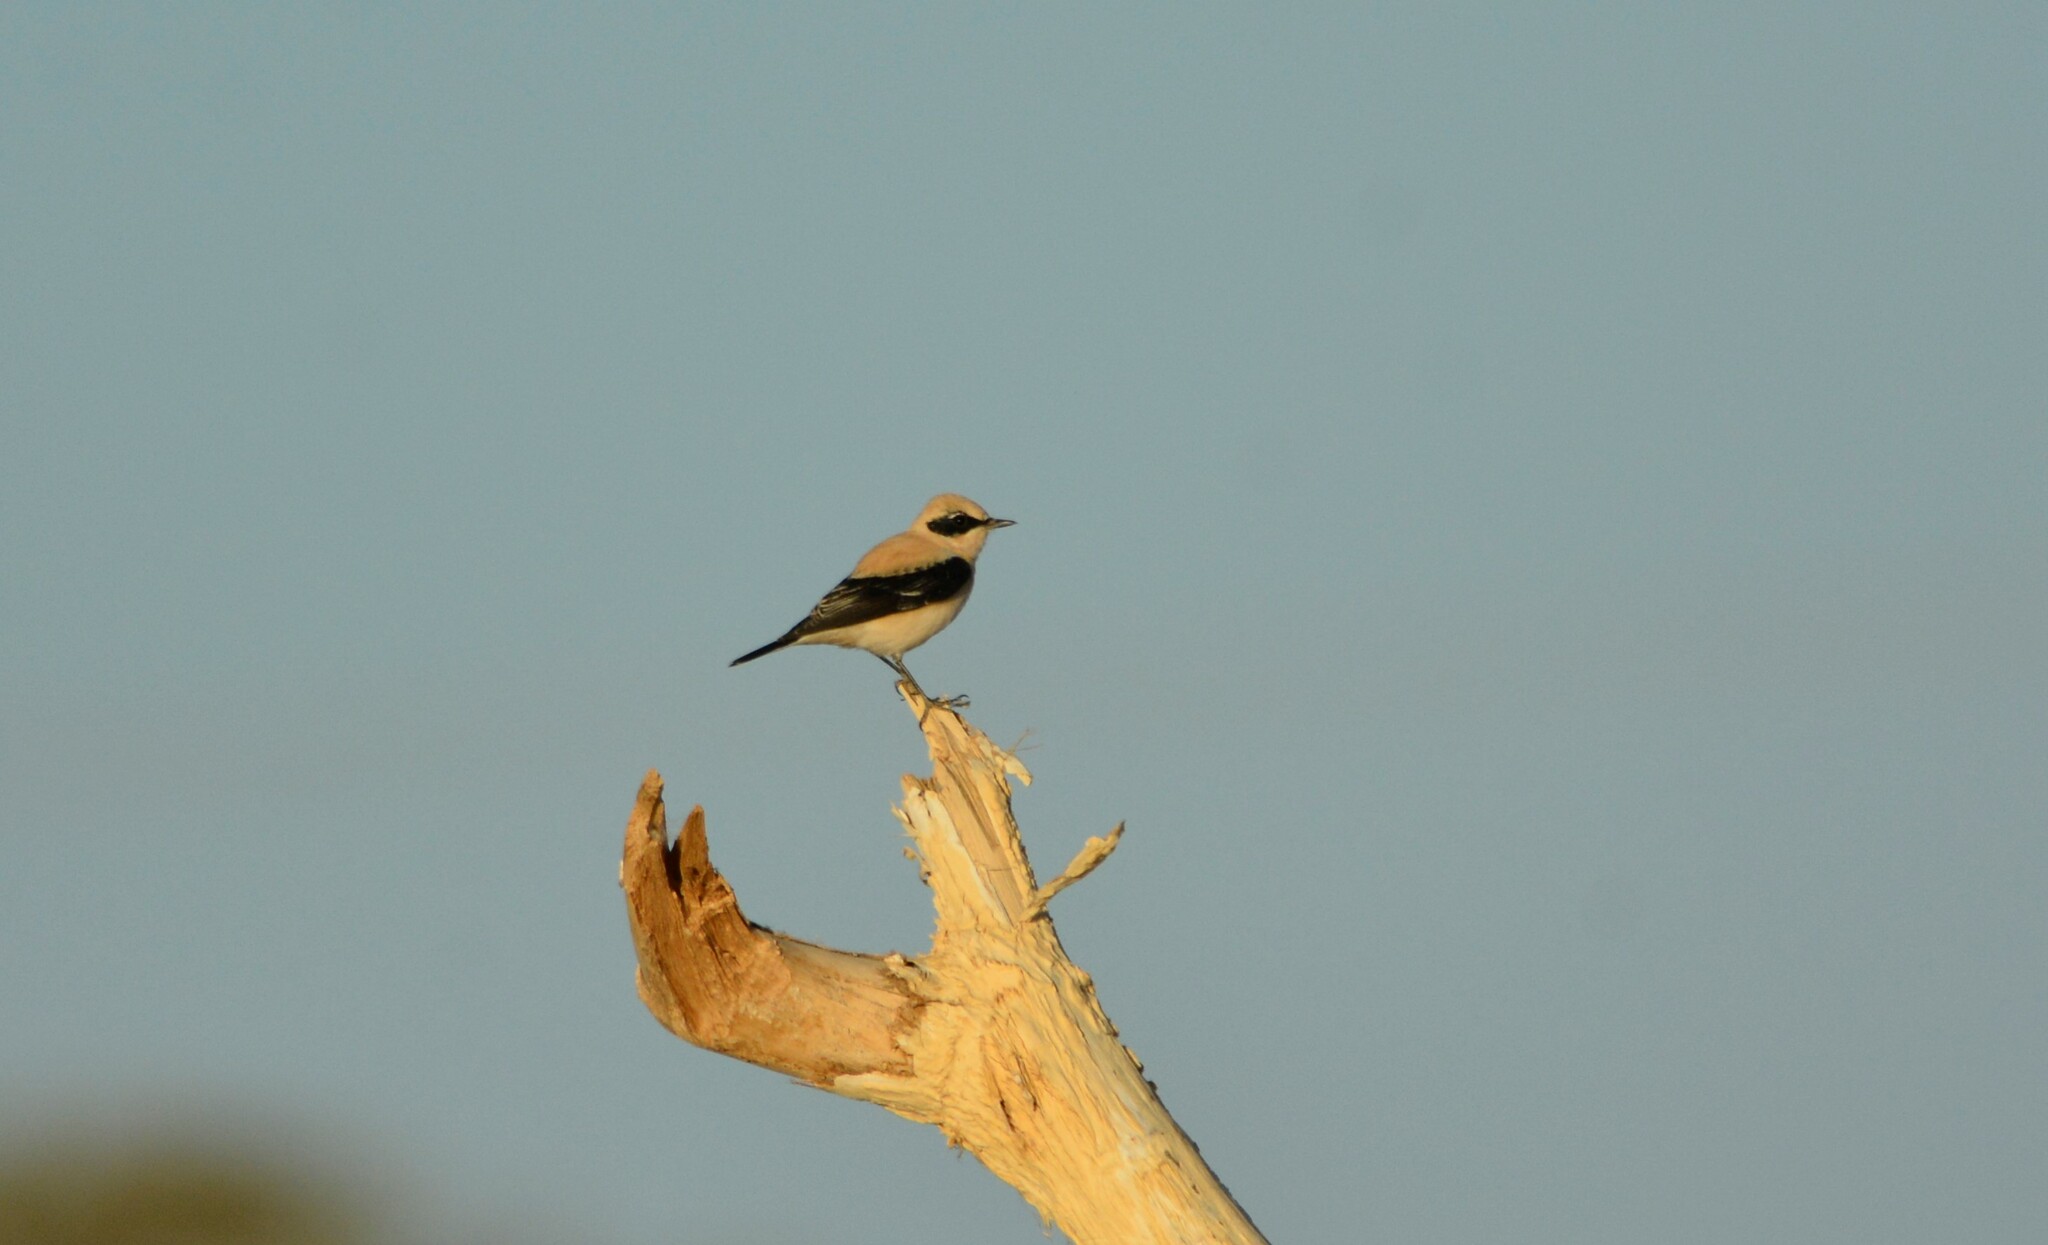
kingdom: Animalia
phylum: Chordata
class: Aves
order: Passeriformes
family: Muscicapidae
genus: Oenanthe
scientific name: Oenanthe hispanica
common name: Black-eared wheatear
